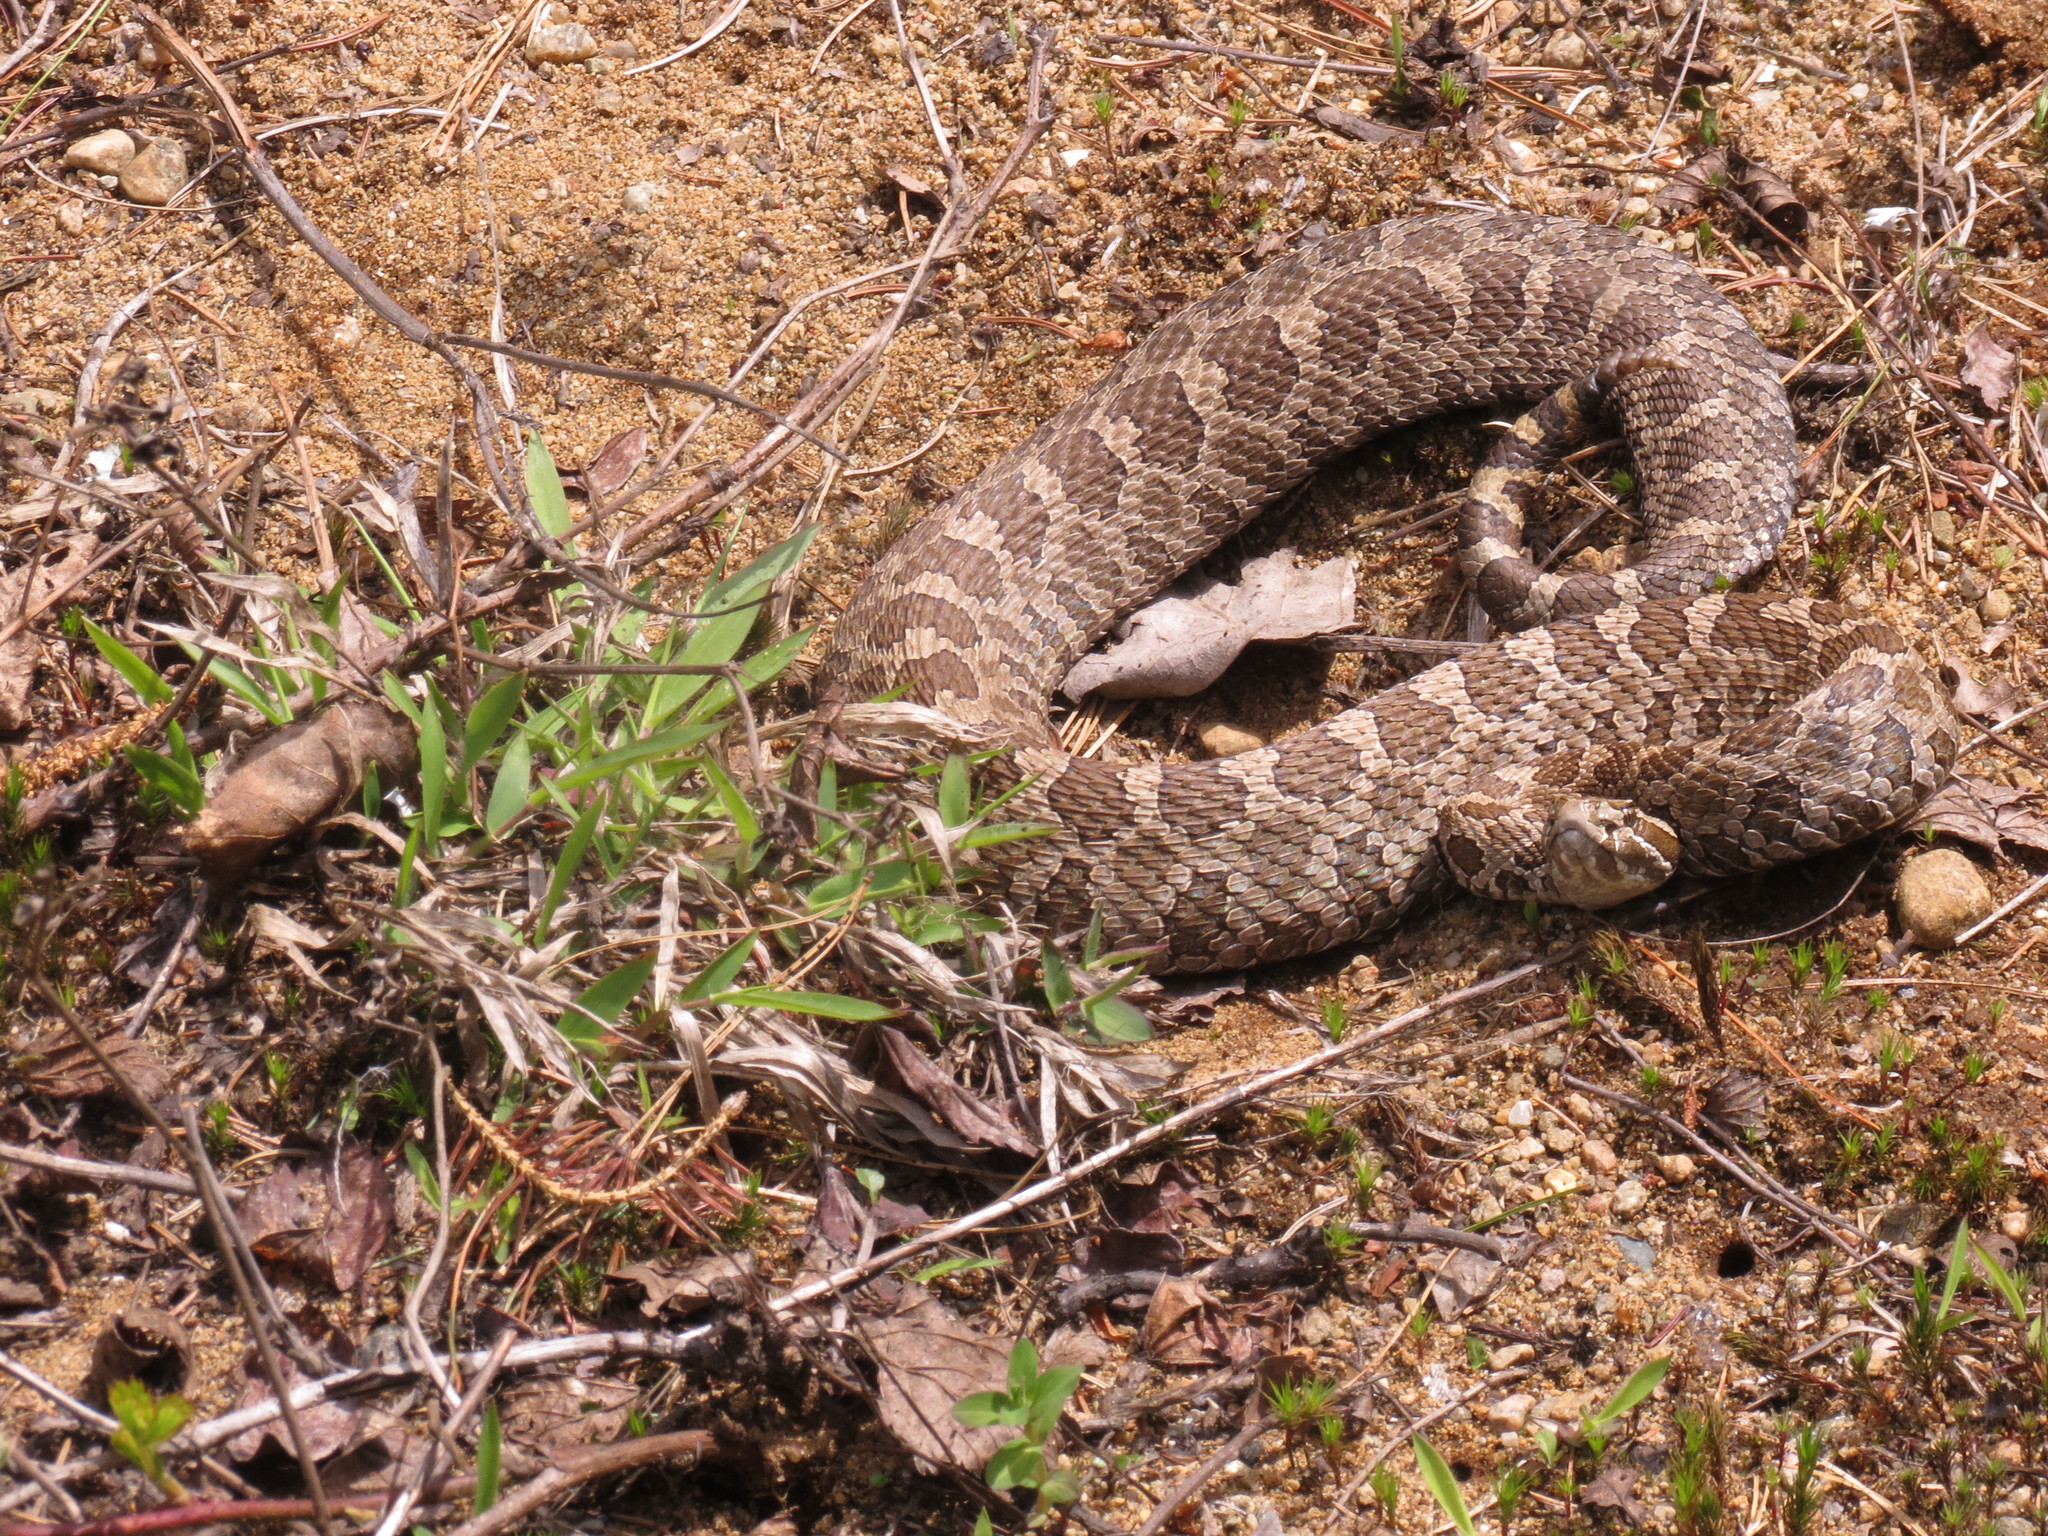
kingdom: Animalia
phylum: Chordata
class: Squamata
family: Viperidae
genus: Sistrurus
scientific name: Sistrurus catenatus
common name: Massasauga
